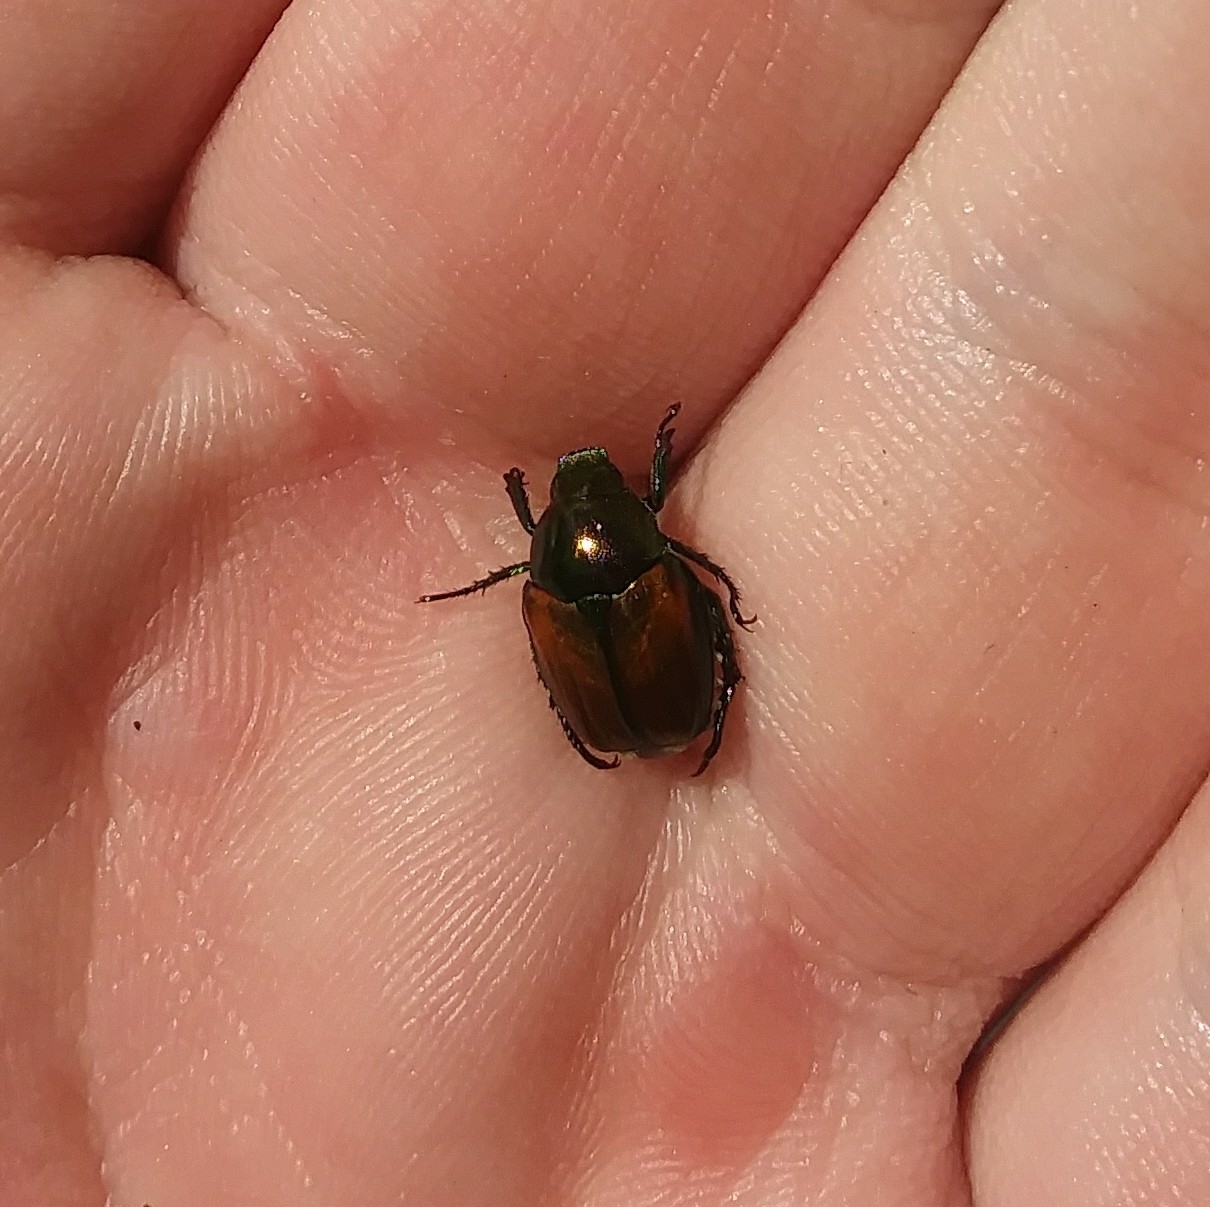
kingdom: Animalia
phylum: Arthropoda
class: Insecta
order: Coleoptera
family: Scarabaeidae
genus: Popillia
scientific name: Popillia japonica
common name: Japanese beetle
